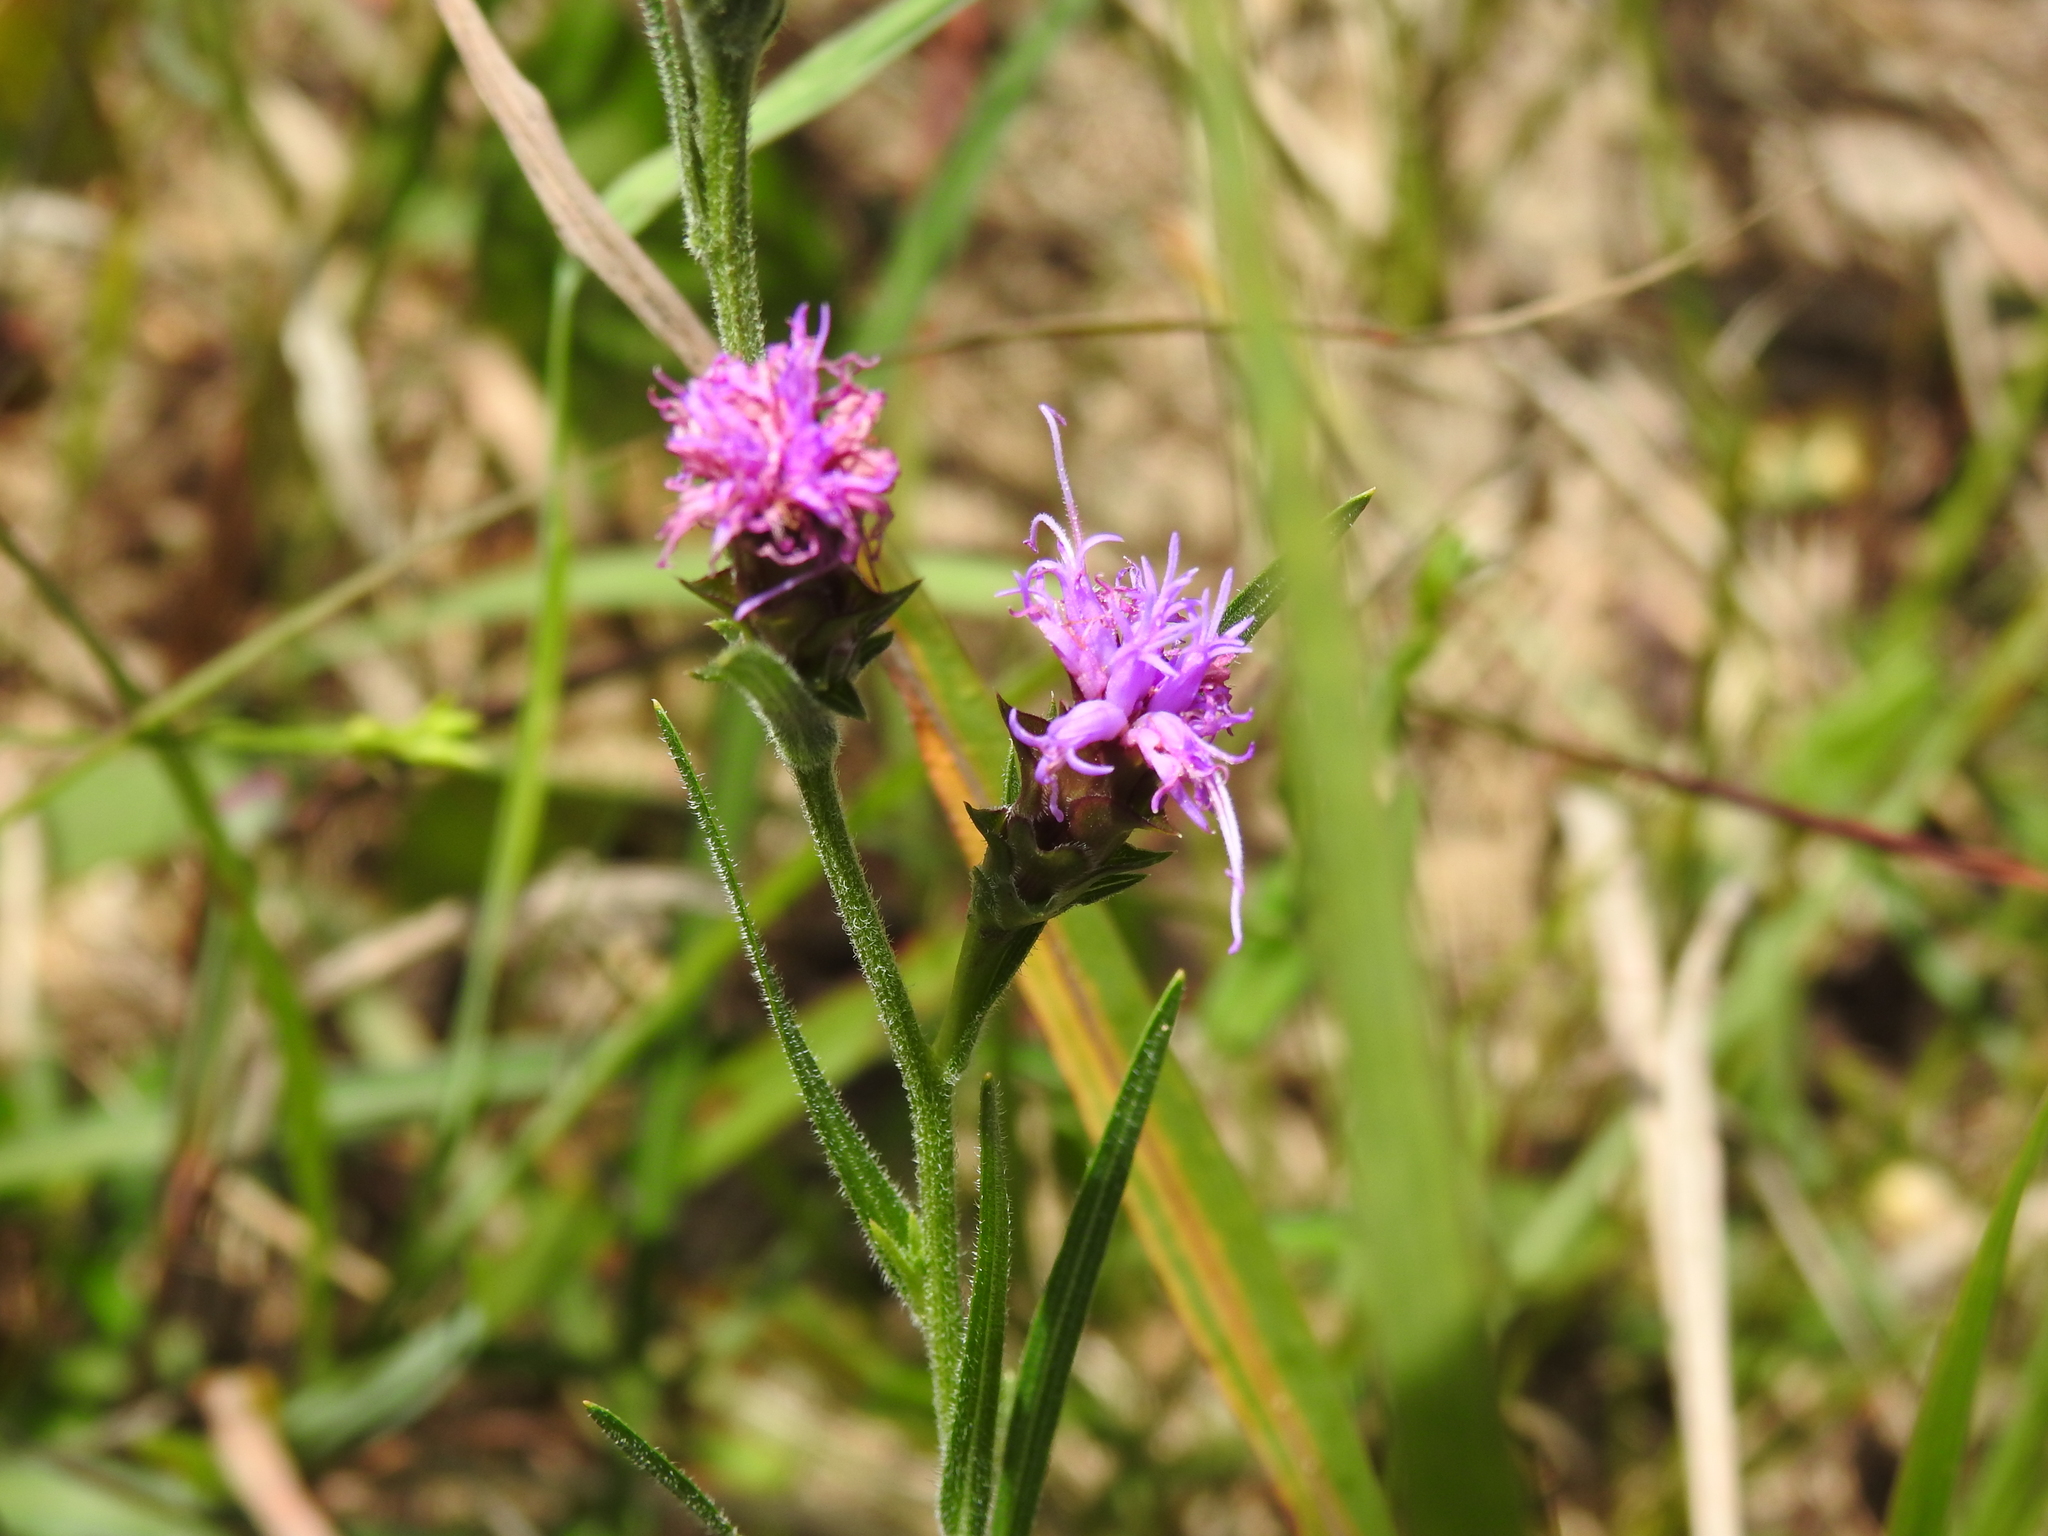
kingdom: Plantae
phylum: Tracheophyta
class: Magnoliopsida
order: Asterales
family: Asteraceae
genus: Liatris
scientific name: Liatris squarrosa
